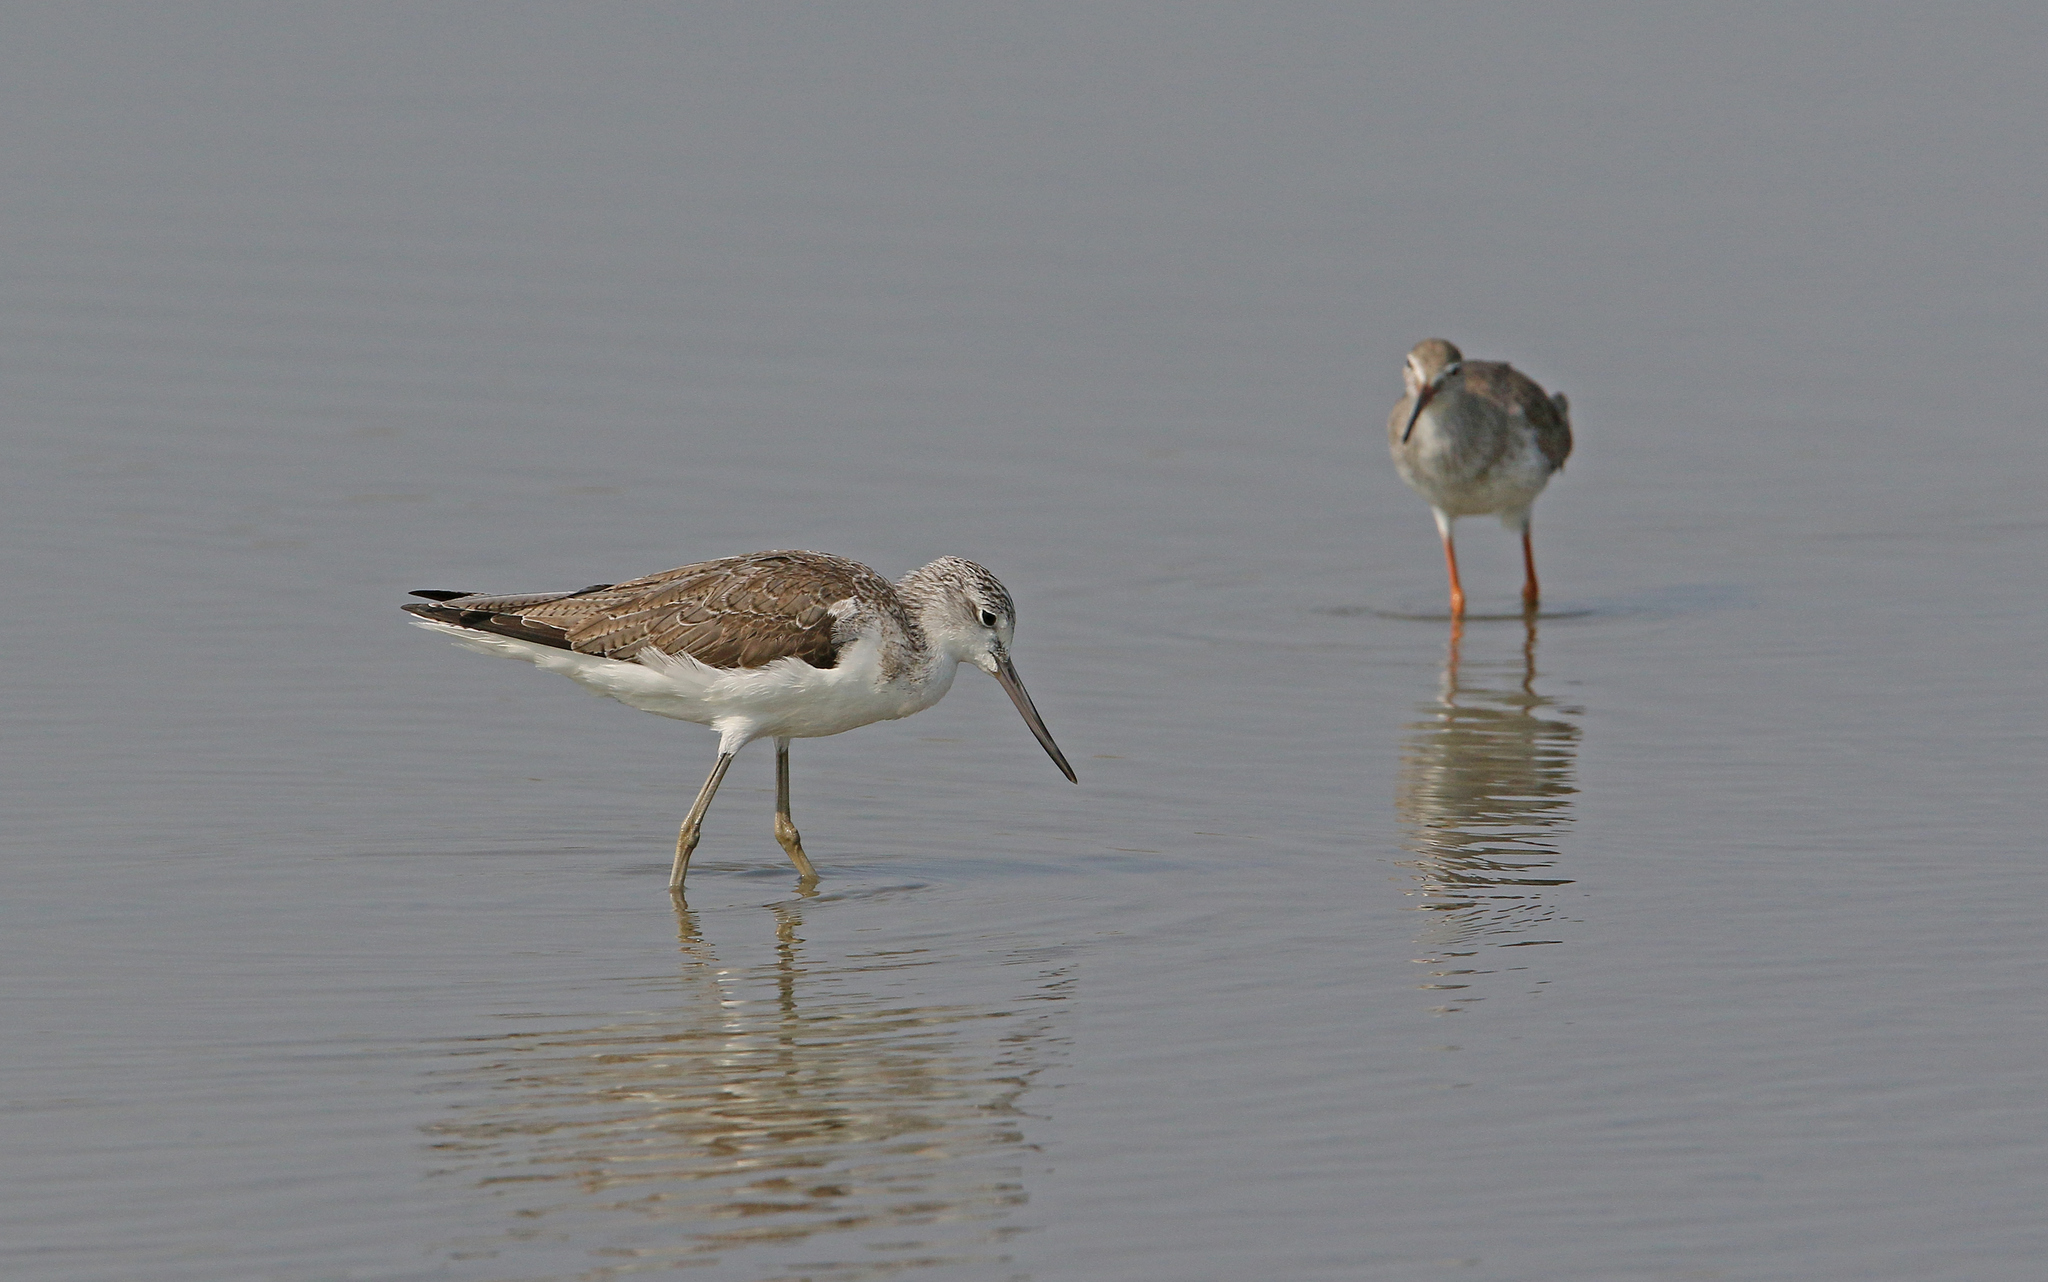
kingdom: Animalia
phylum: Chordata
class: Aves
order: Charadriiformes
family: Scolopacidae
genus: Tringa
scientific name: Tringa nebularia
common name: Common greenshank
